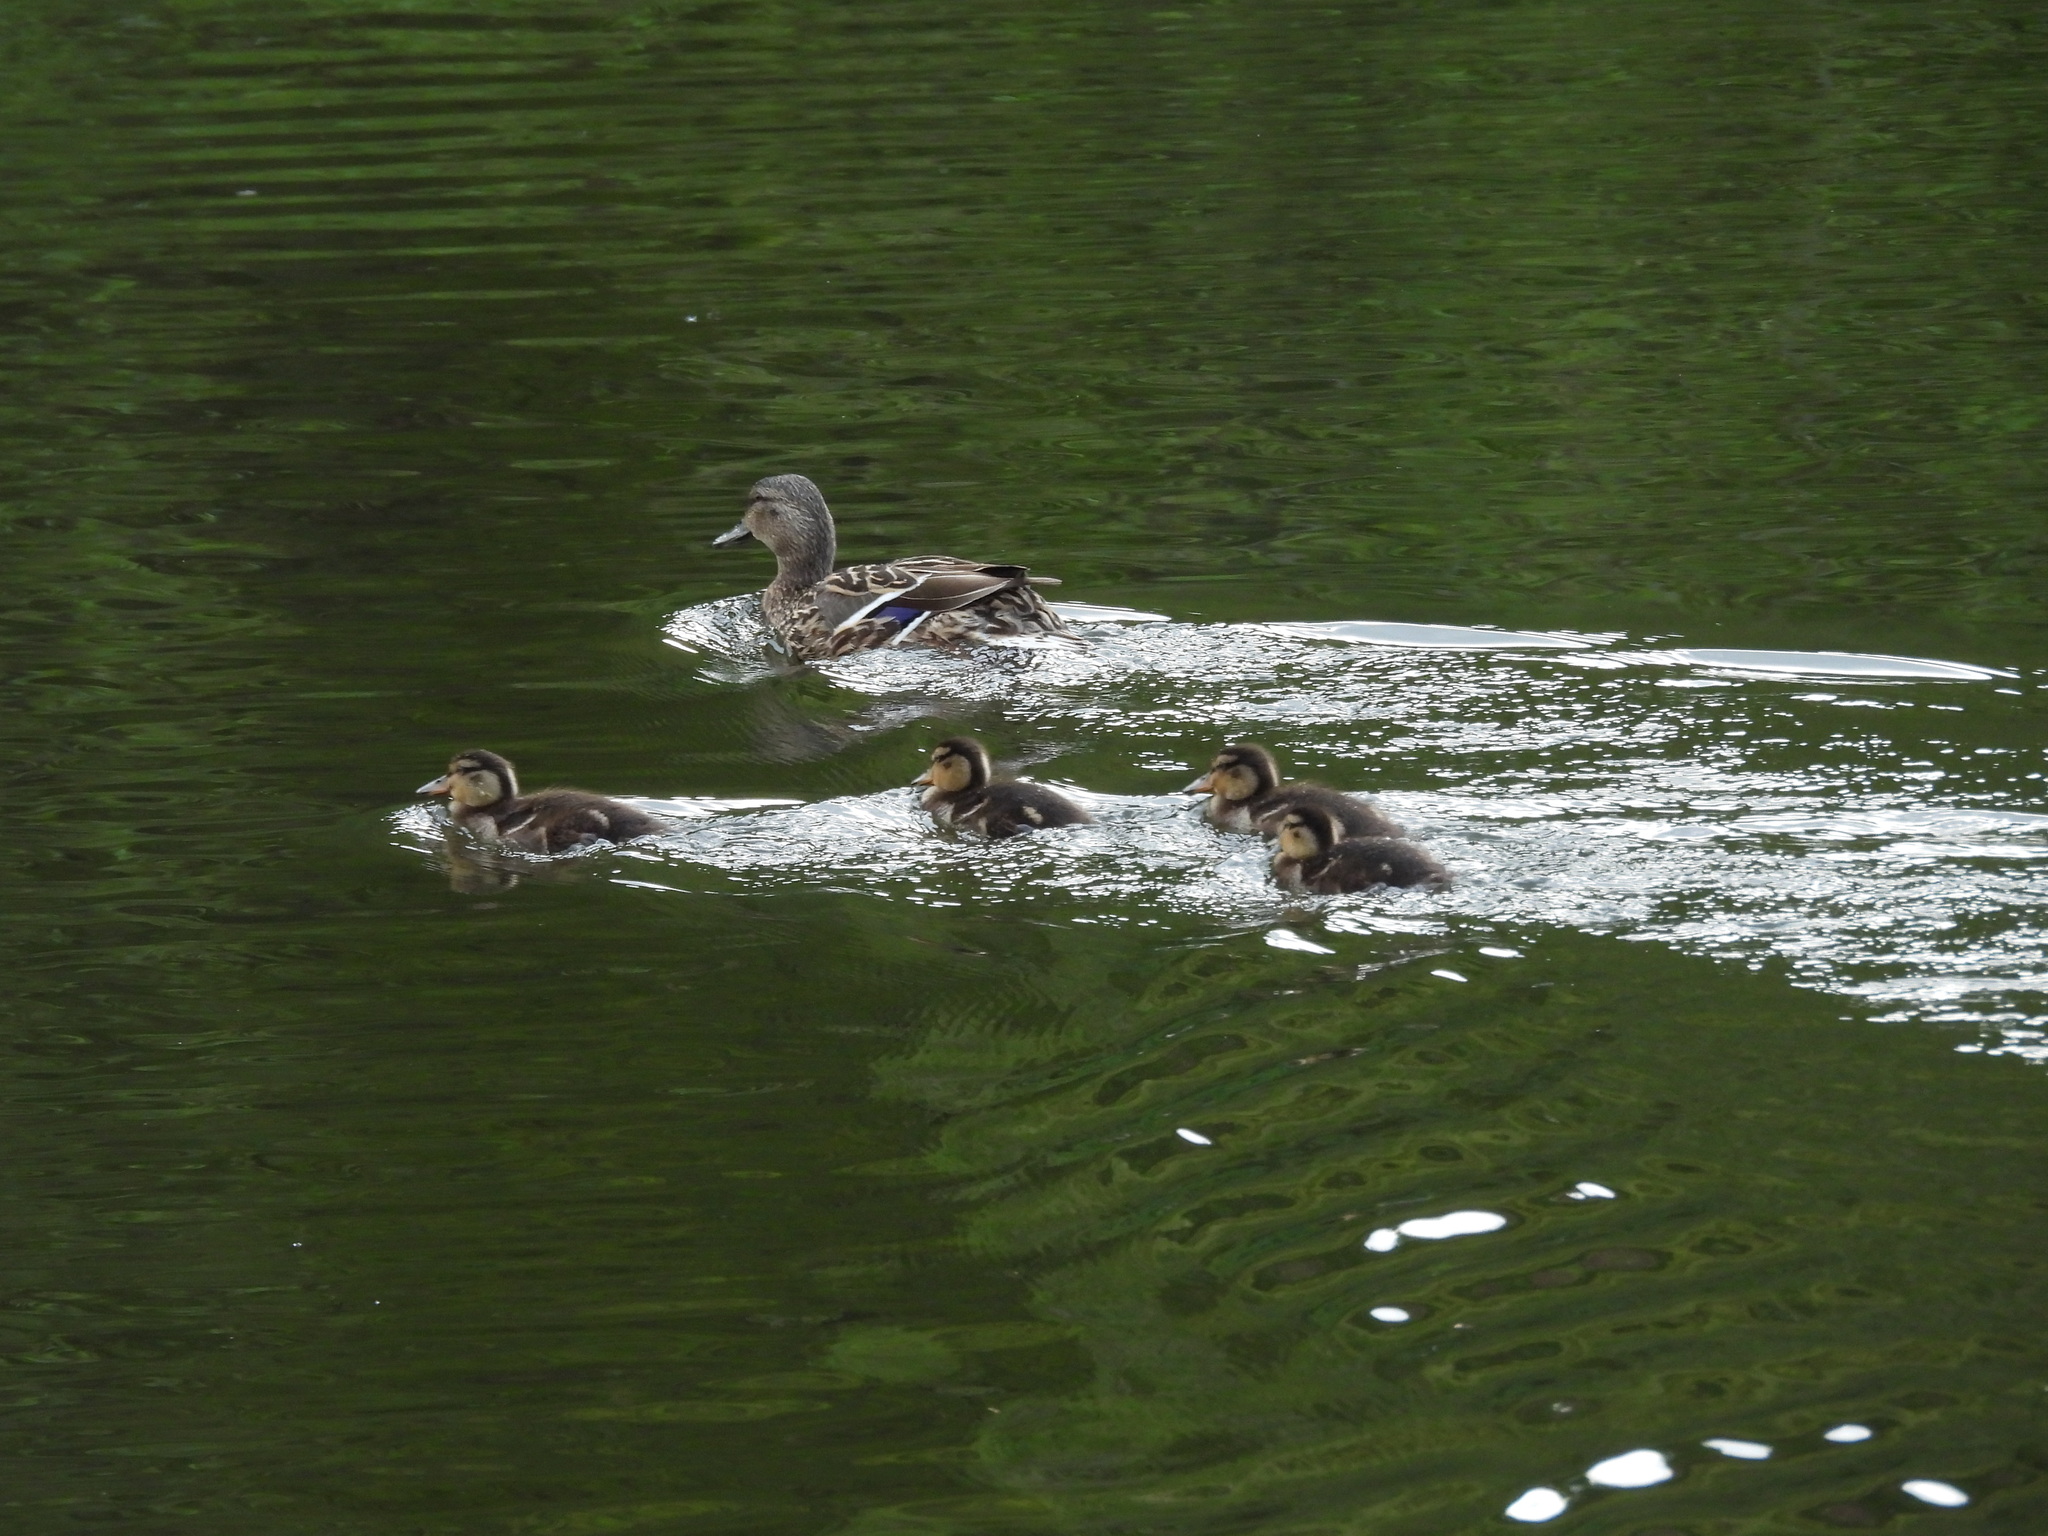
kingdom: Animalia
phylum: Chordata
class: Aves
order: Anseriformes
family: Anatidae
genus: Anas
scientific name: Anas platyrhynchos
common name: Mallard
